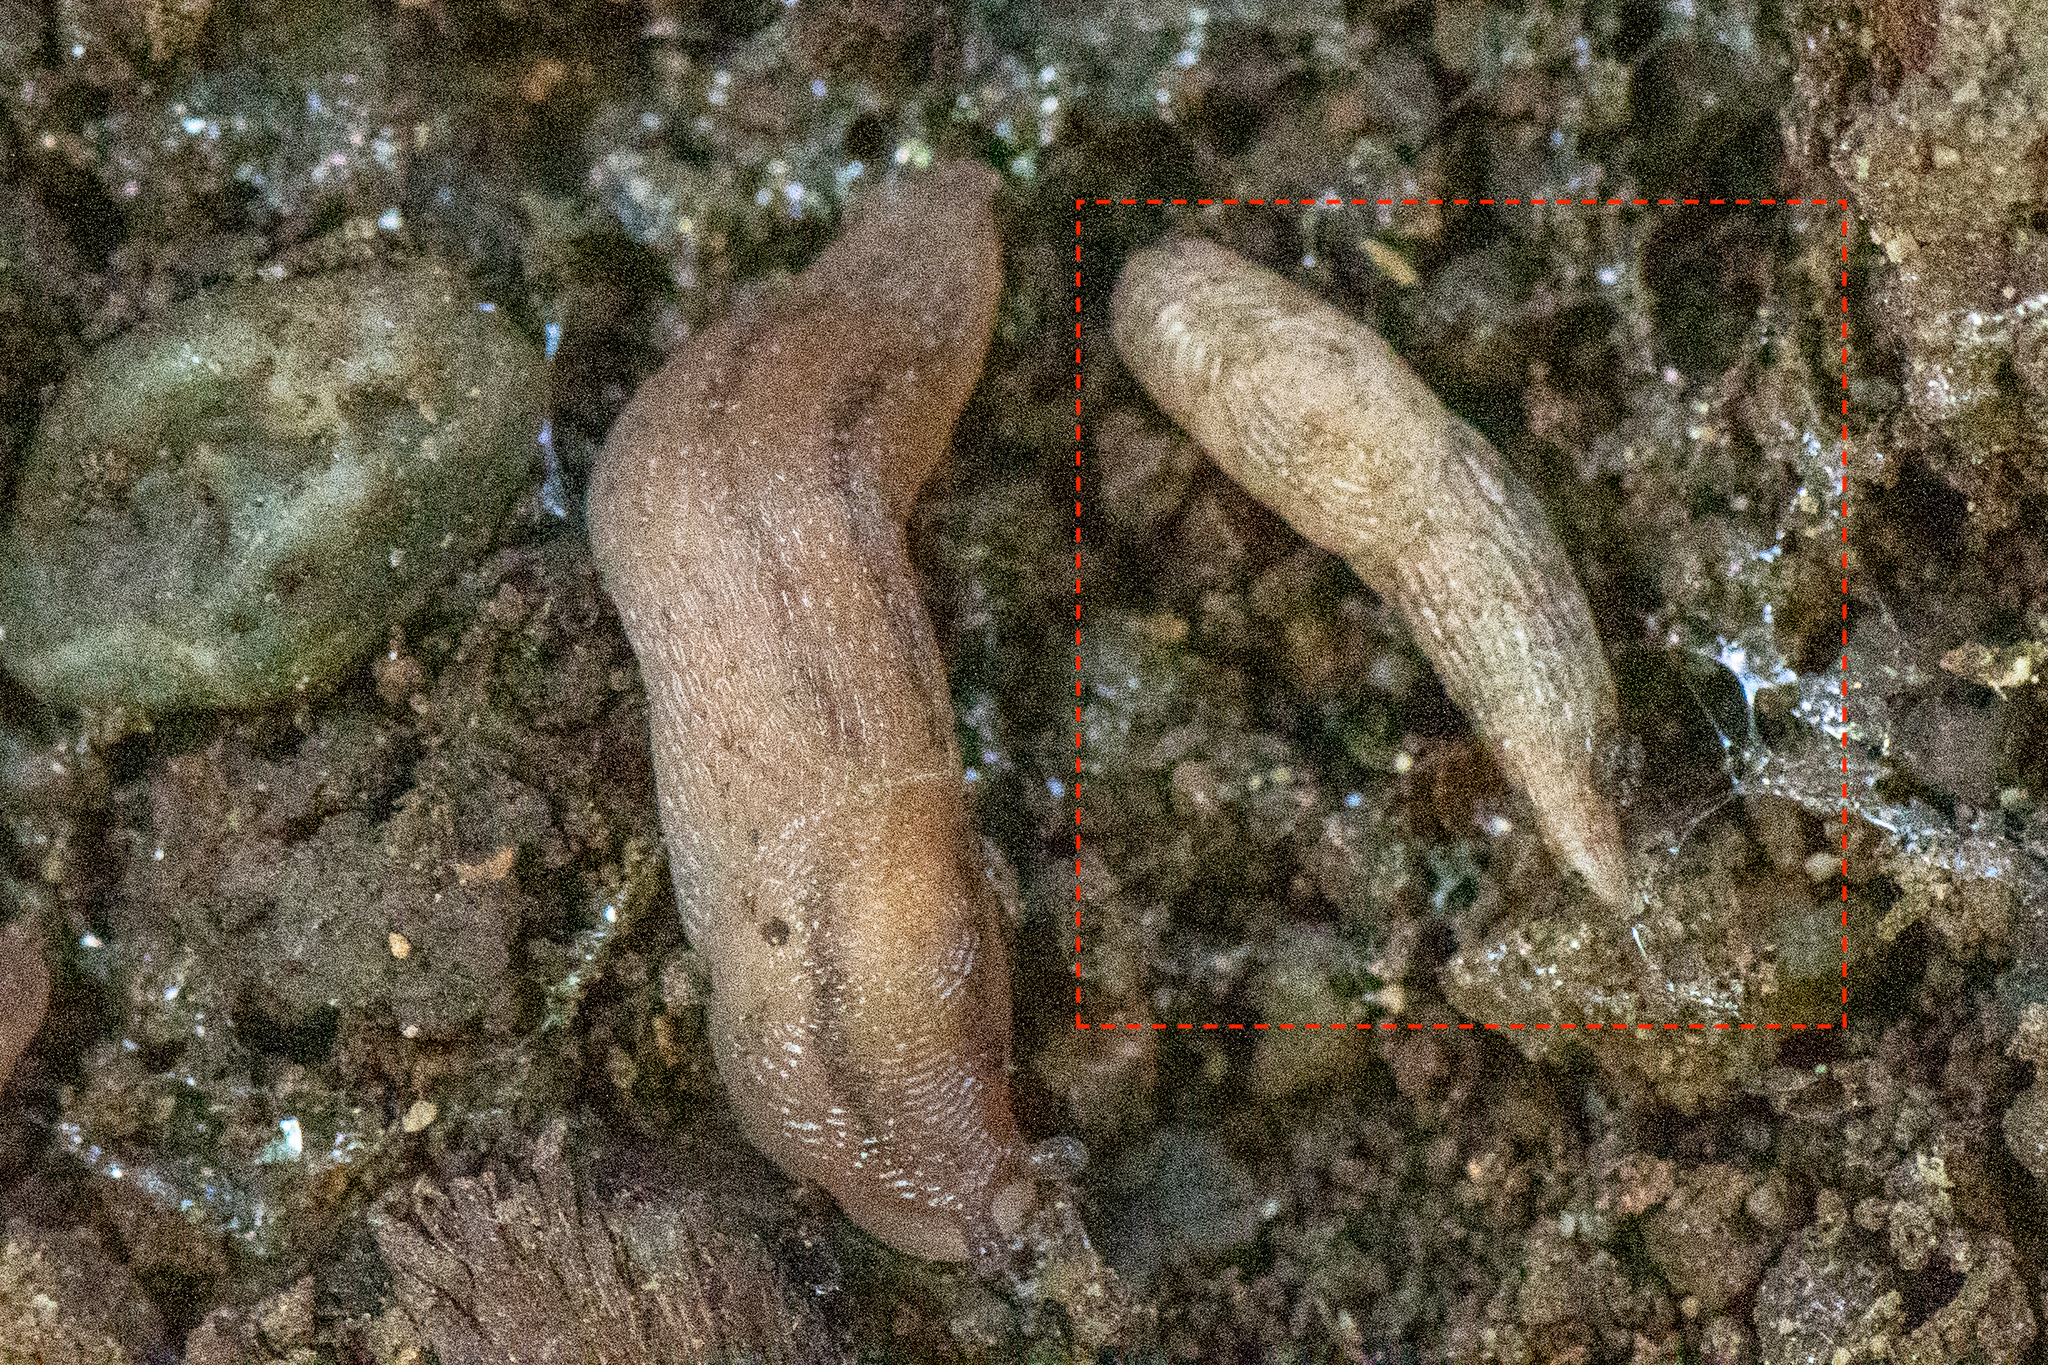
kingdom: Animalia
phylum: Mollusca
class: Gastropoda
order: Stylommatophora
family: Agriolimacidae
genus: Deroceras
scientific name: Deroceras reticulatum
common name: Gray field slug
